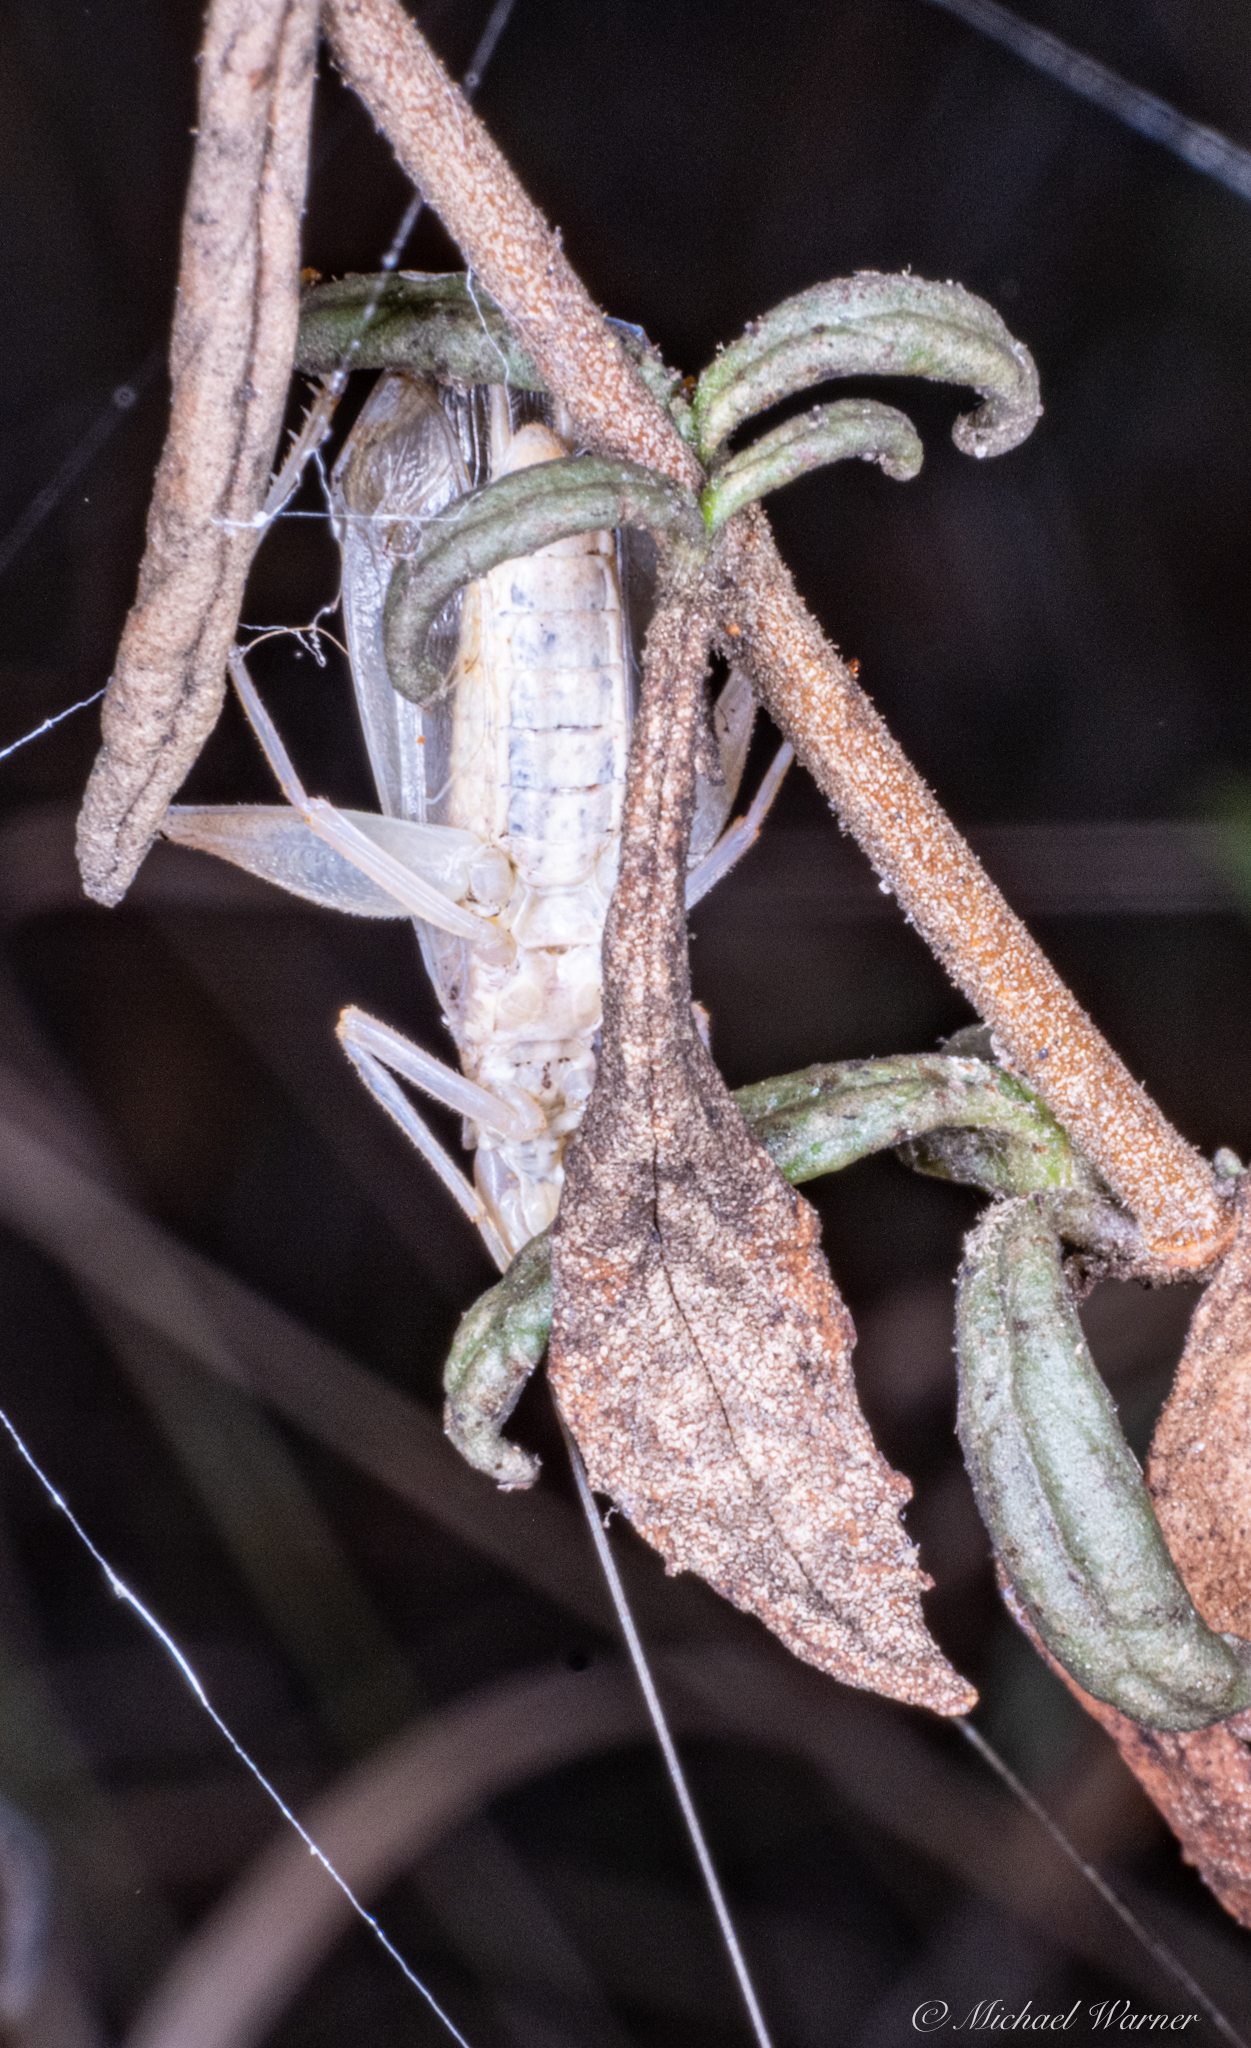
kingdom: Animalia
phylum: Arthropoda
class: Insecta
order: Orthoptera
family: Gryllidae
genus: Oecanthus
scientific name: Oecanthus californicus
